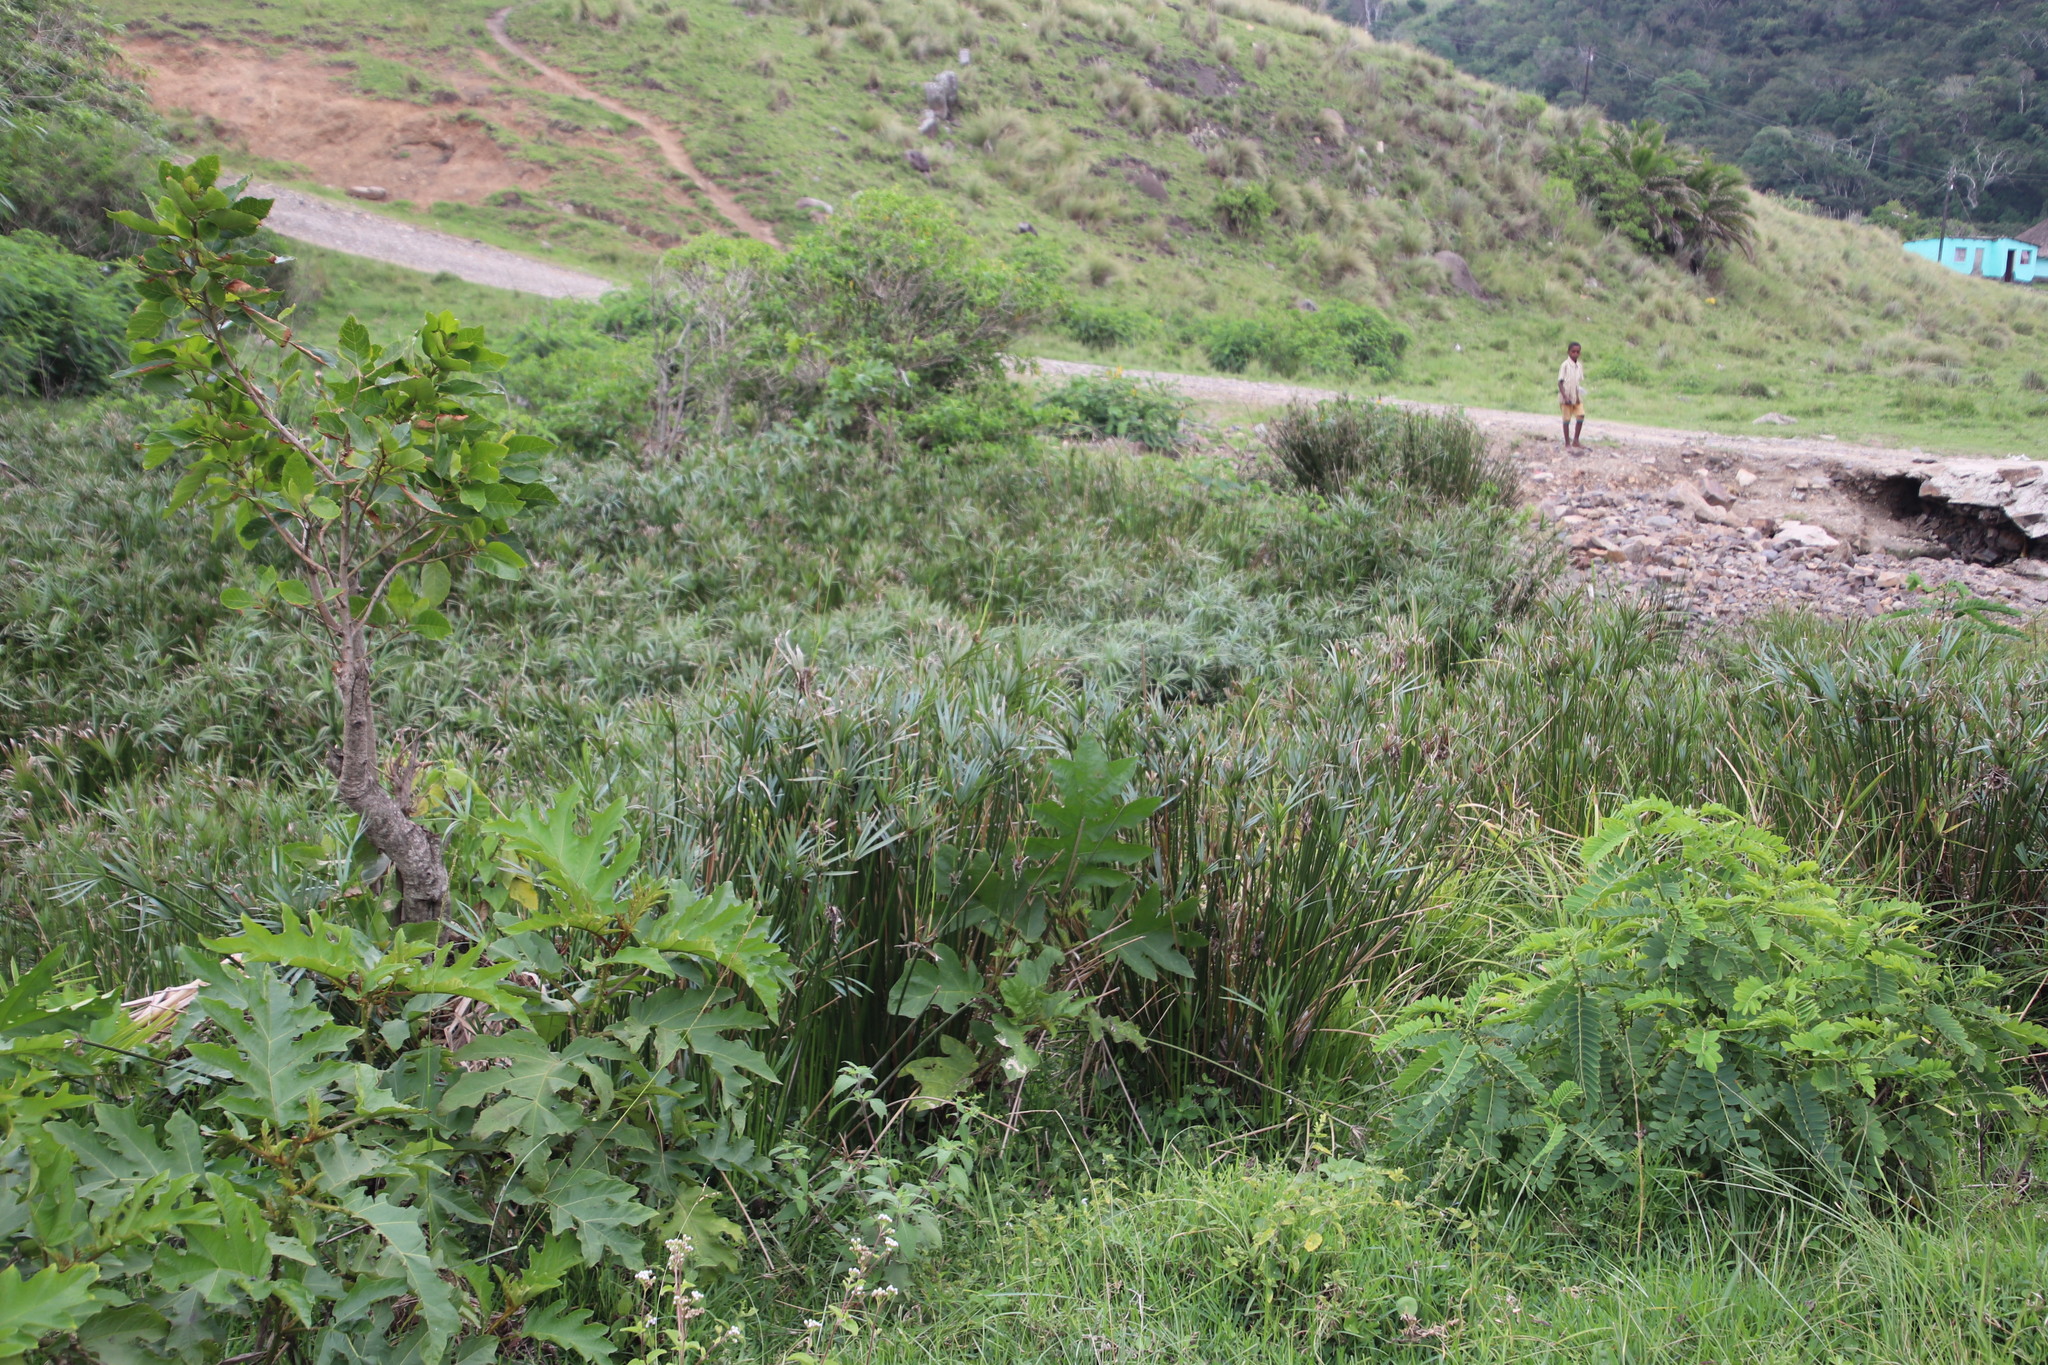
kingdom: Plantae
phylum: Tracheophyta
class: Liliopsida
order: Poales
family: Cyperaceae
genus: Cyperus
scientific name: Cyperus textilis
